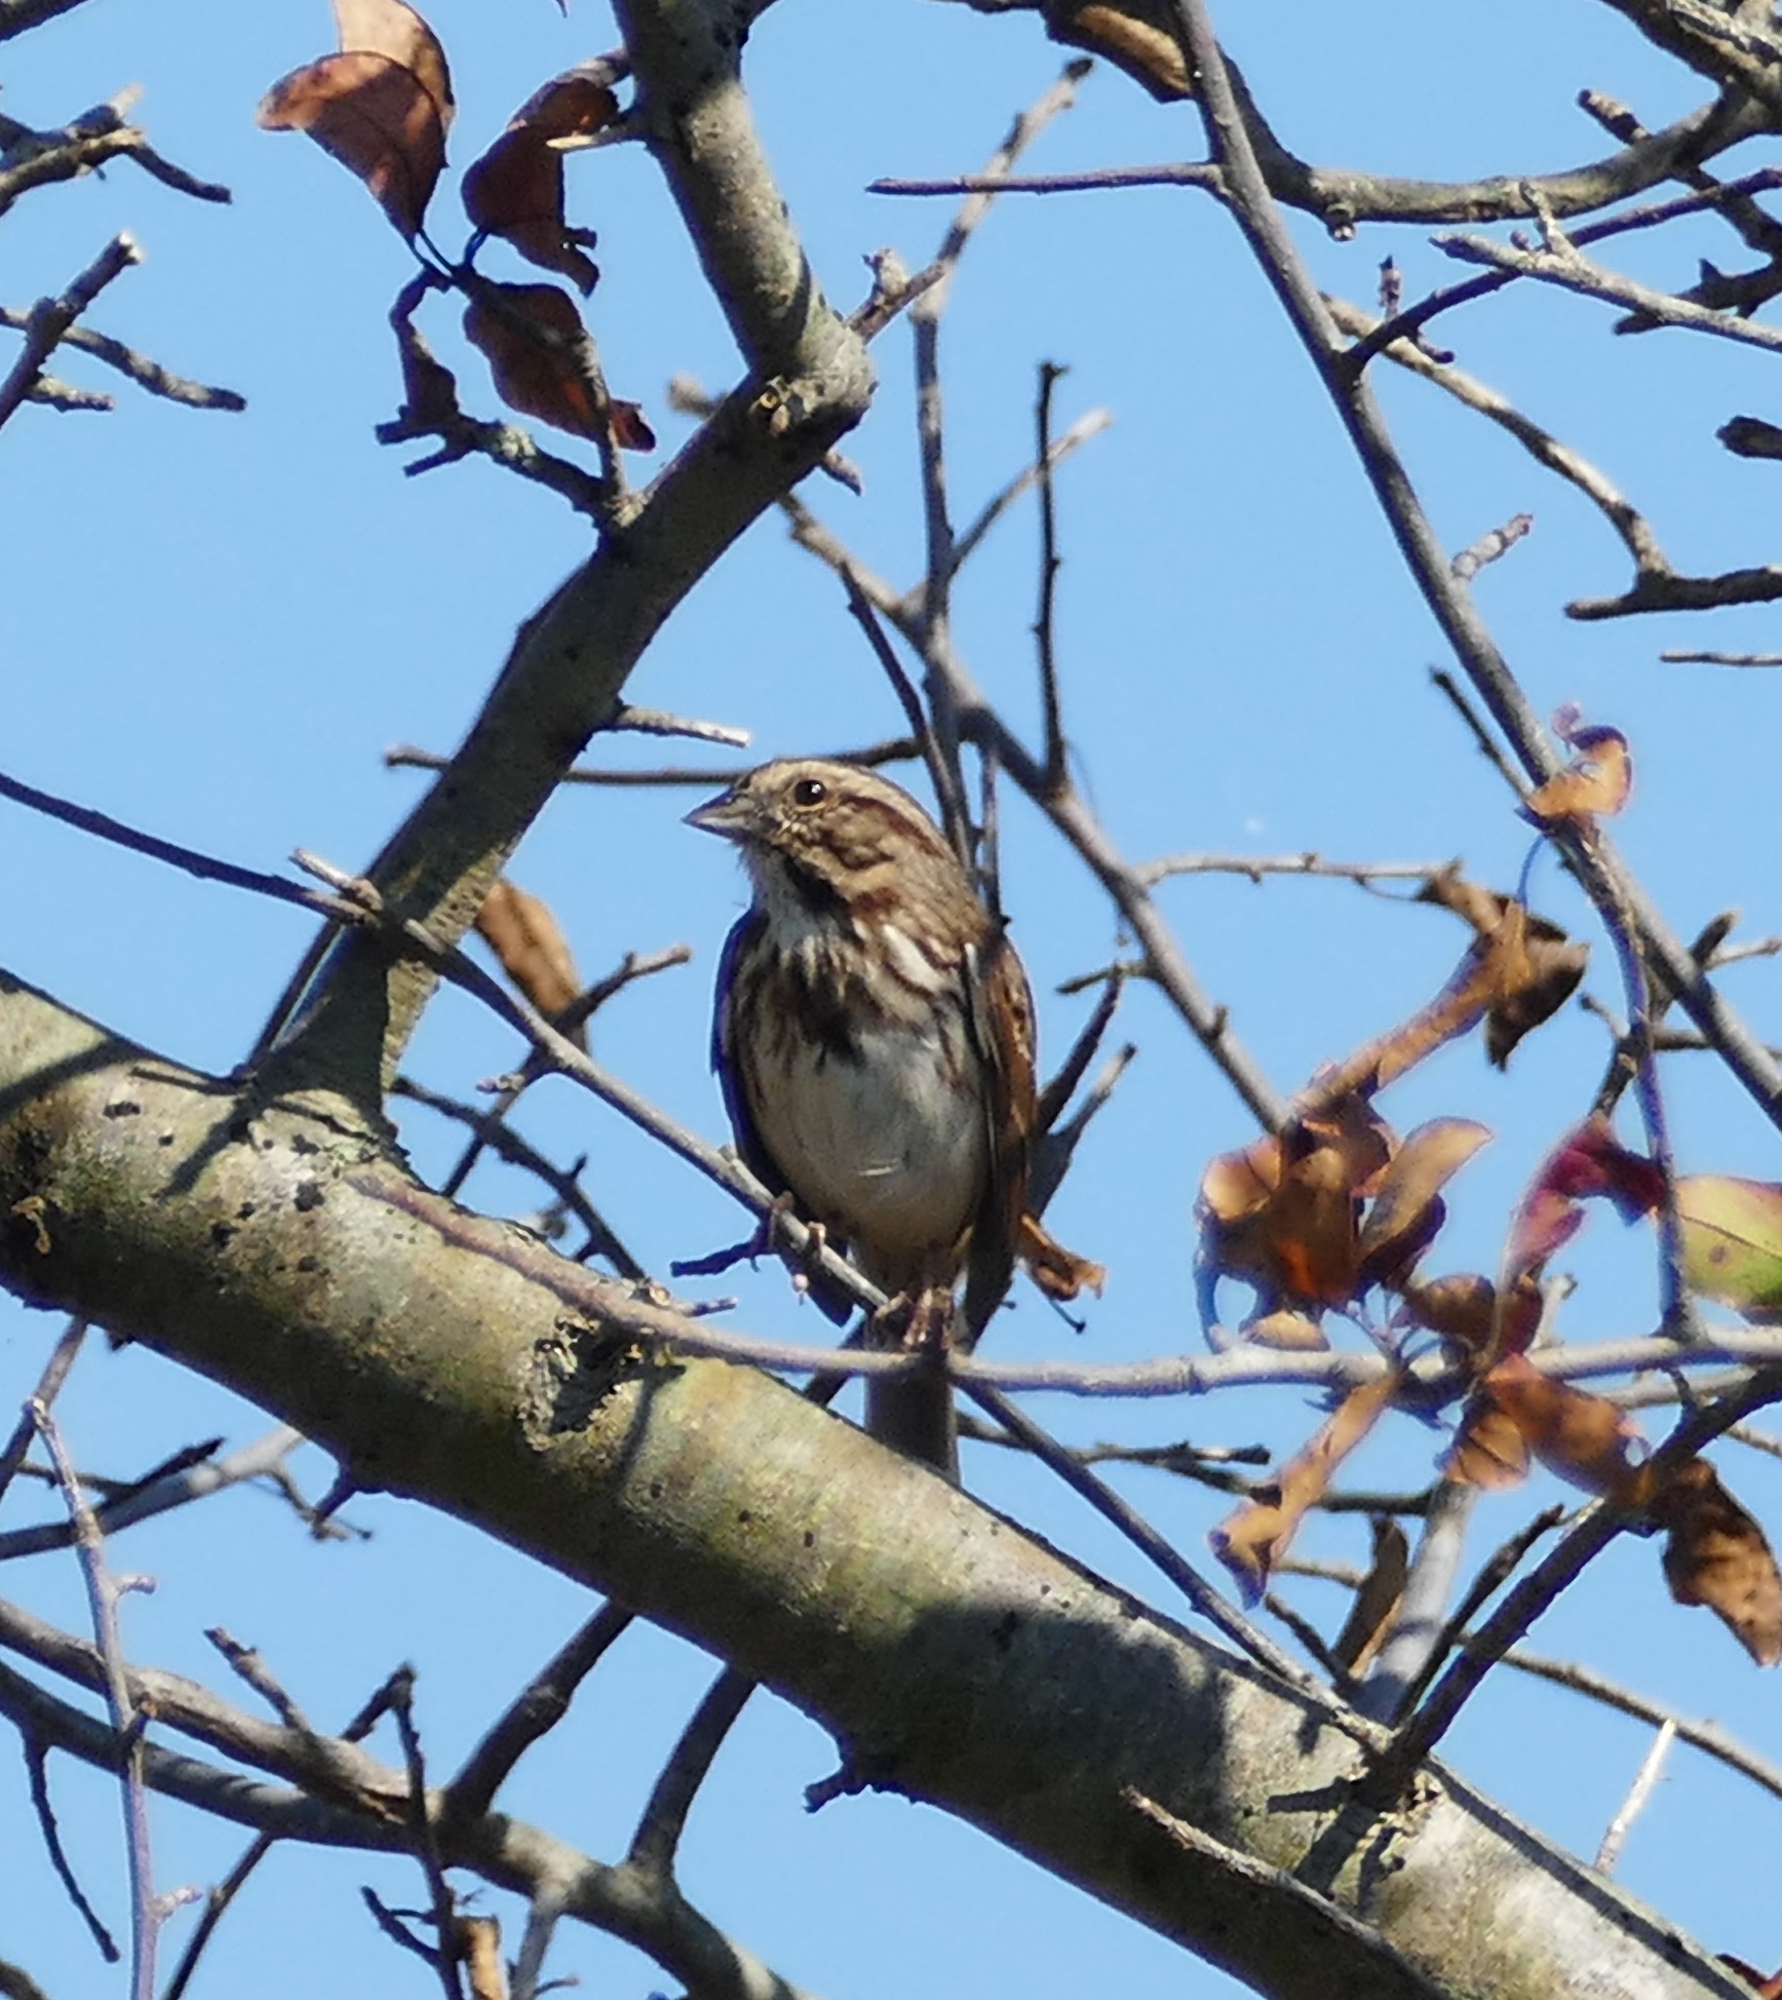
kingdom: Animalia
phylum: Chordata
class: Aves
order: Passeriformes
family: Passerellidae
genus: Melospiza
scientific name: Melospiza melodia
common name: Song sparrow
